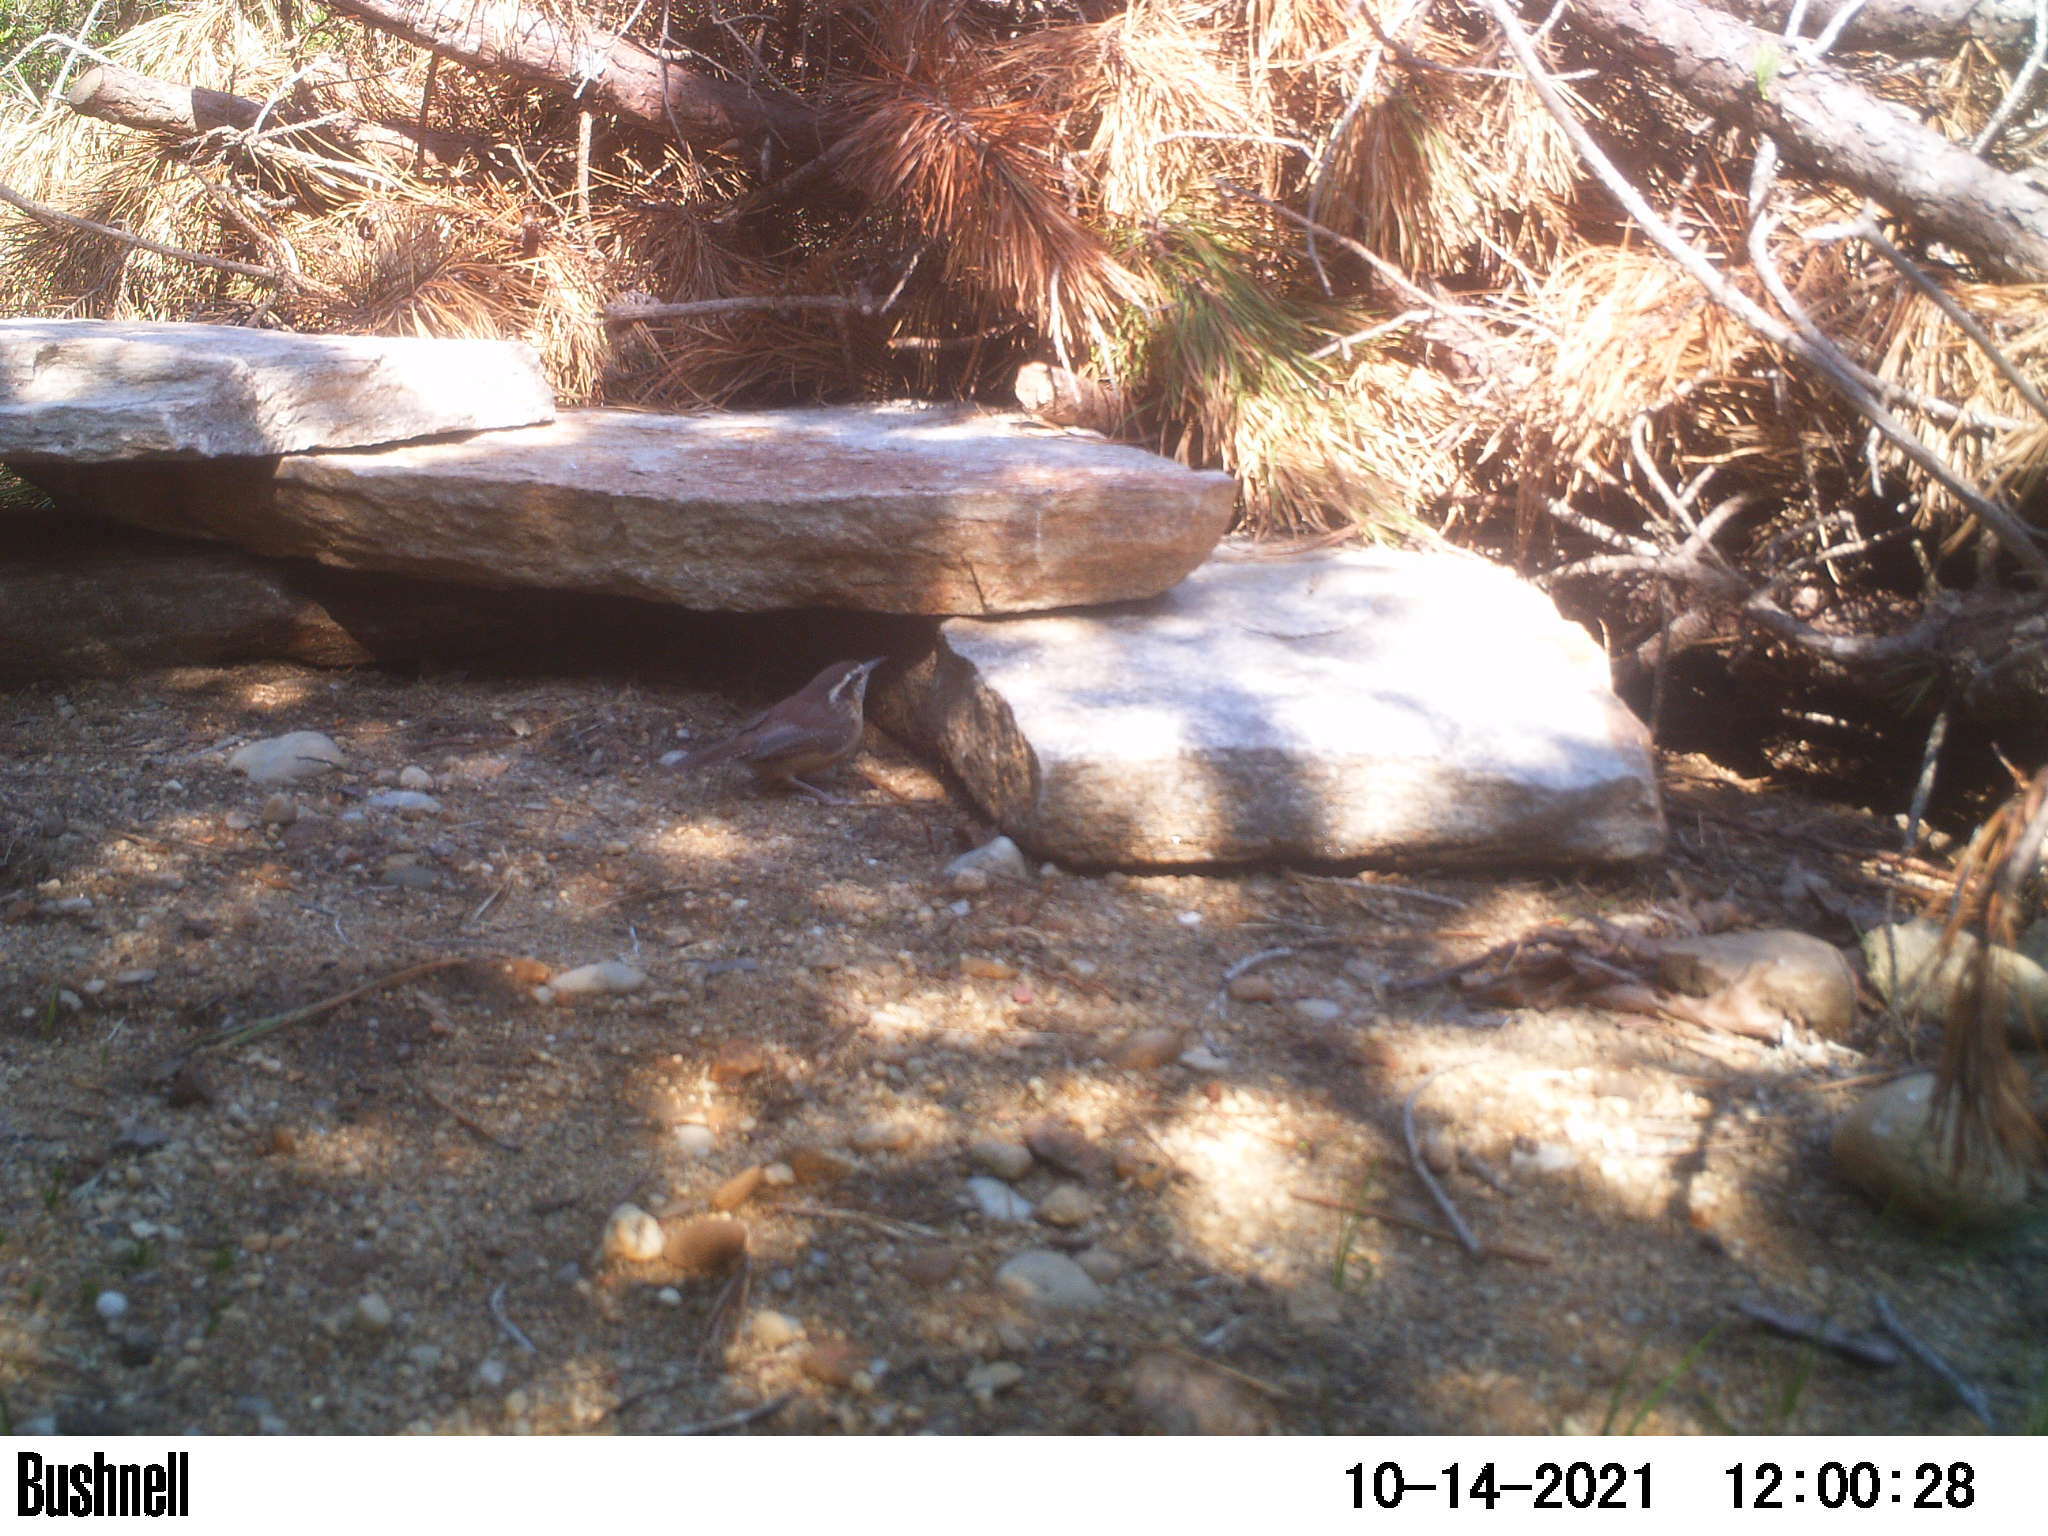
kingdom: Animalia
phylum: Chordata
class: Aves
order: Passeriformes
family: Troglodytidae
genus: Thryothorus
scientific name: Thryothorus ludovicianus
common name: Carolina wren
